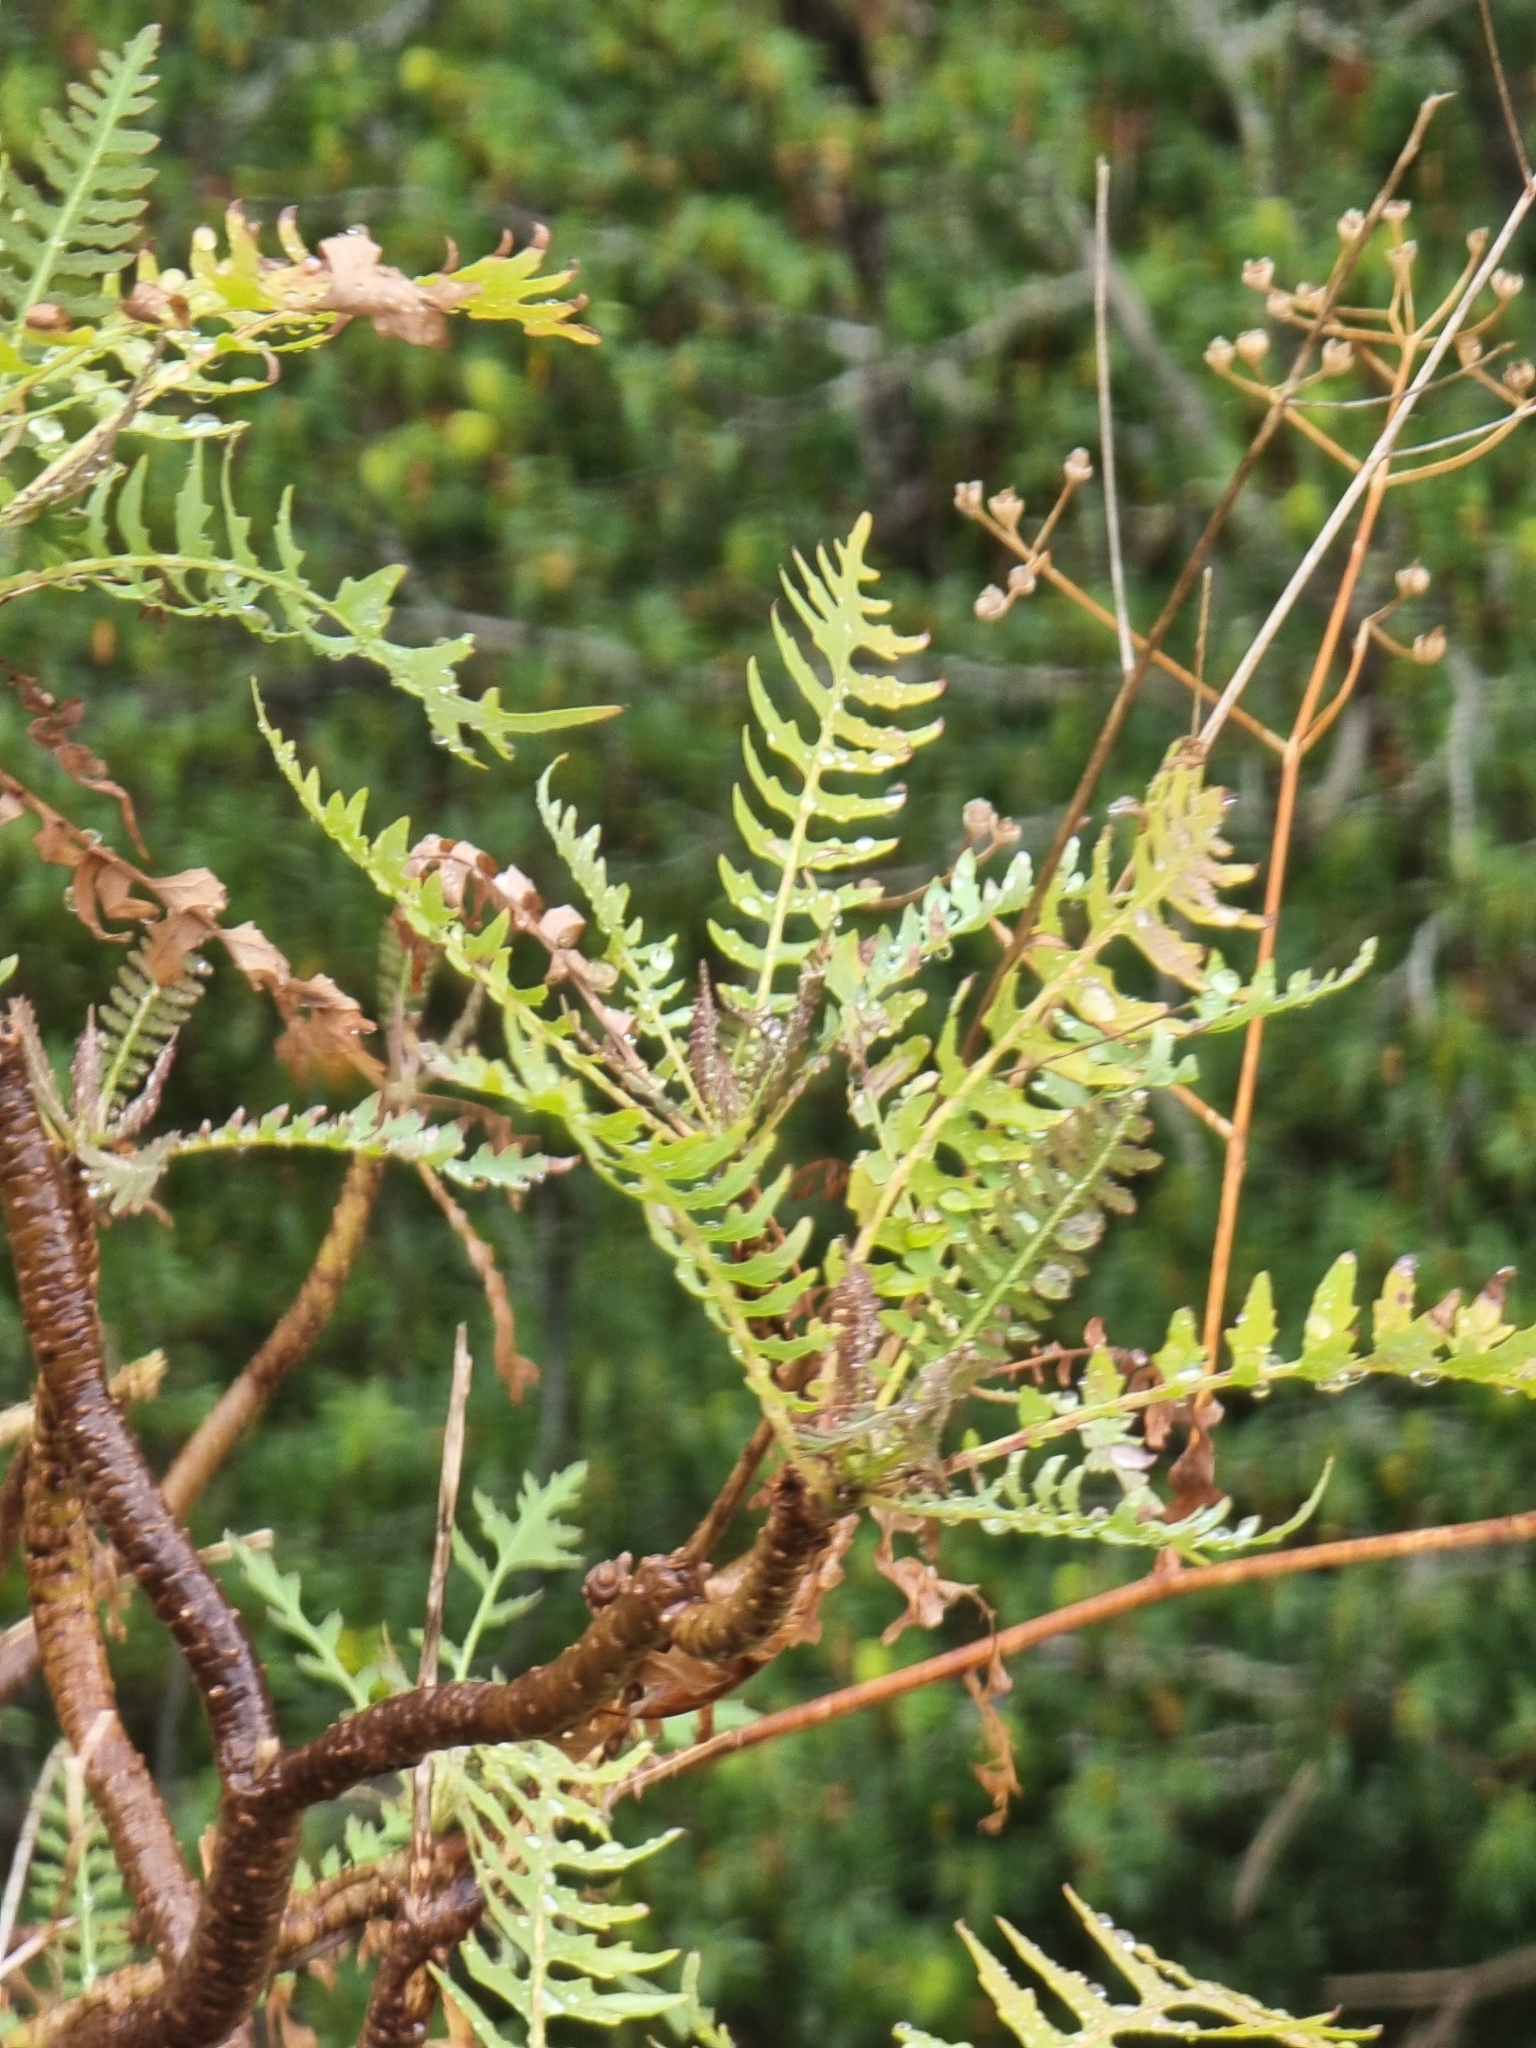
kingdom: Plantae
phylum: Tracheophyta
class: Magnoliopsida
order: Asterales
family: Asteraceae
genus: Sonchus
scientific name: Sonchus pinnatus
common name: Wing-leaved sow-thistle
